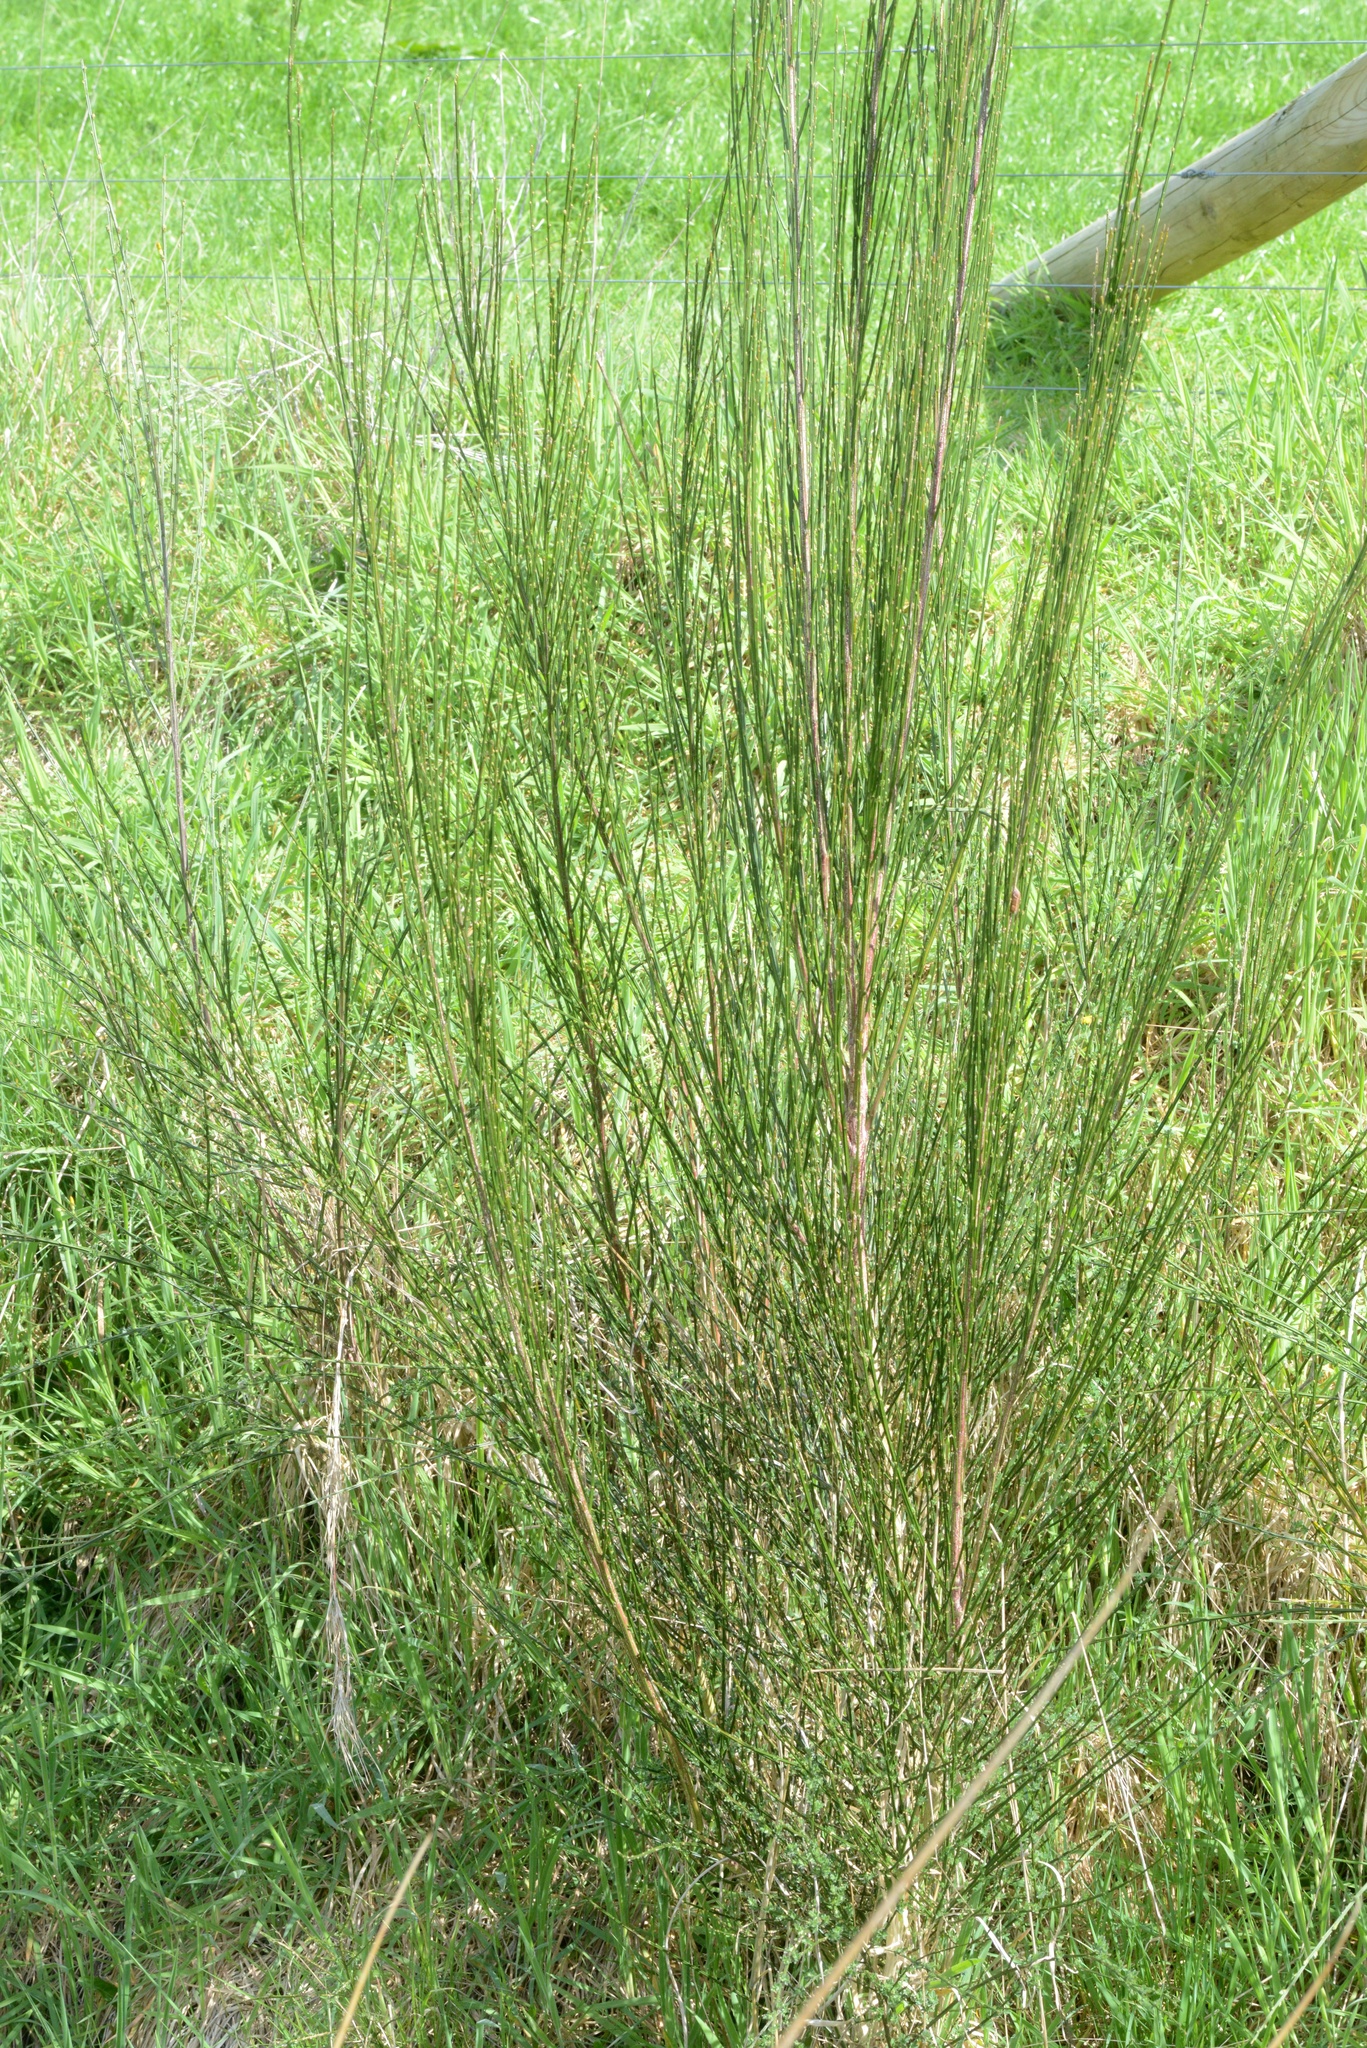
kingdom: Plantae
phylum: Tracheophyta
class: Magnoliopsida
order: Fabales
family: Fabaceae
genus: Cytisus
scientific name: Cytisus scoparius
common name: Scotch broom
